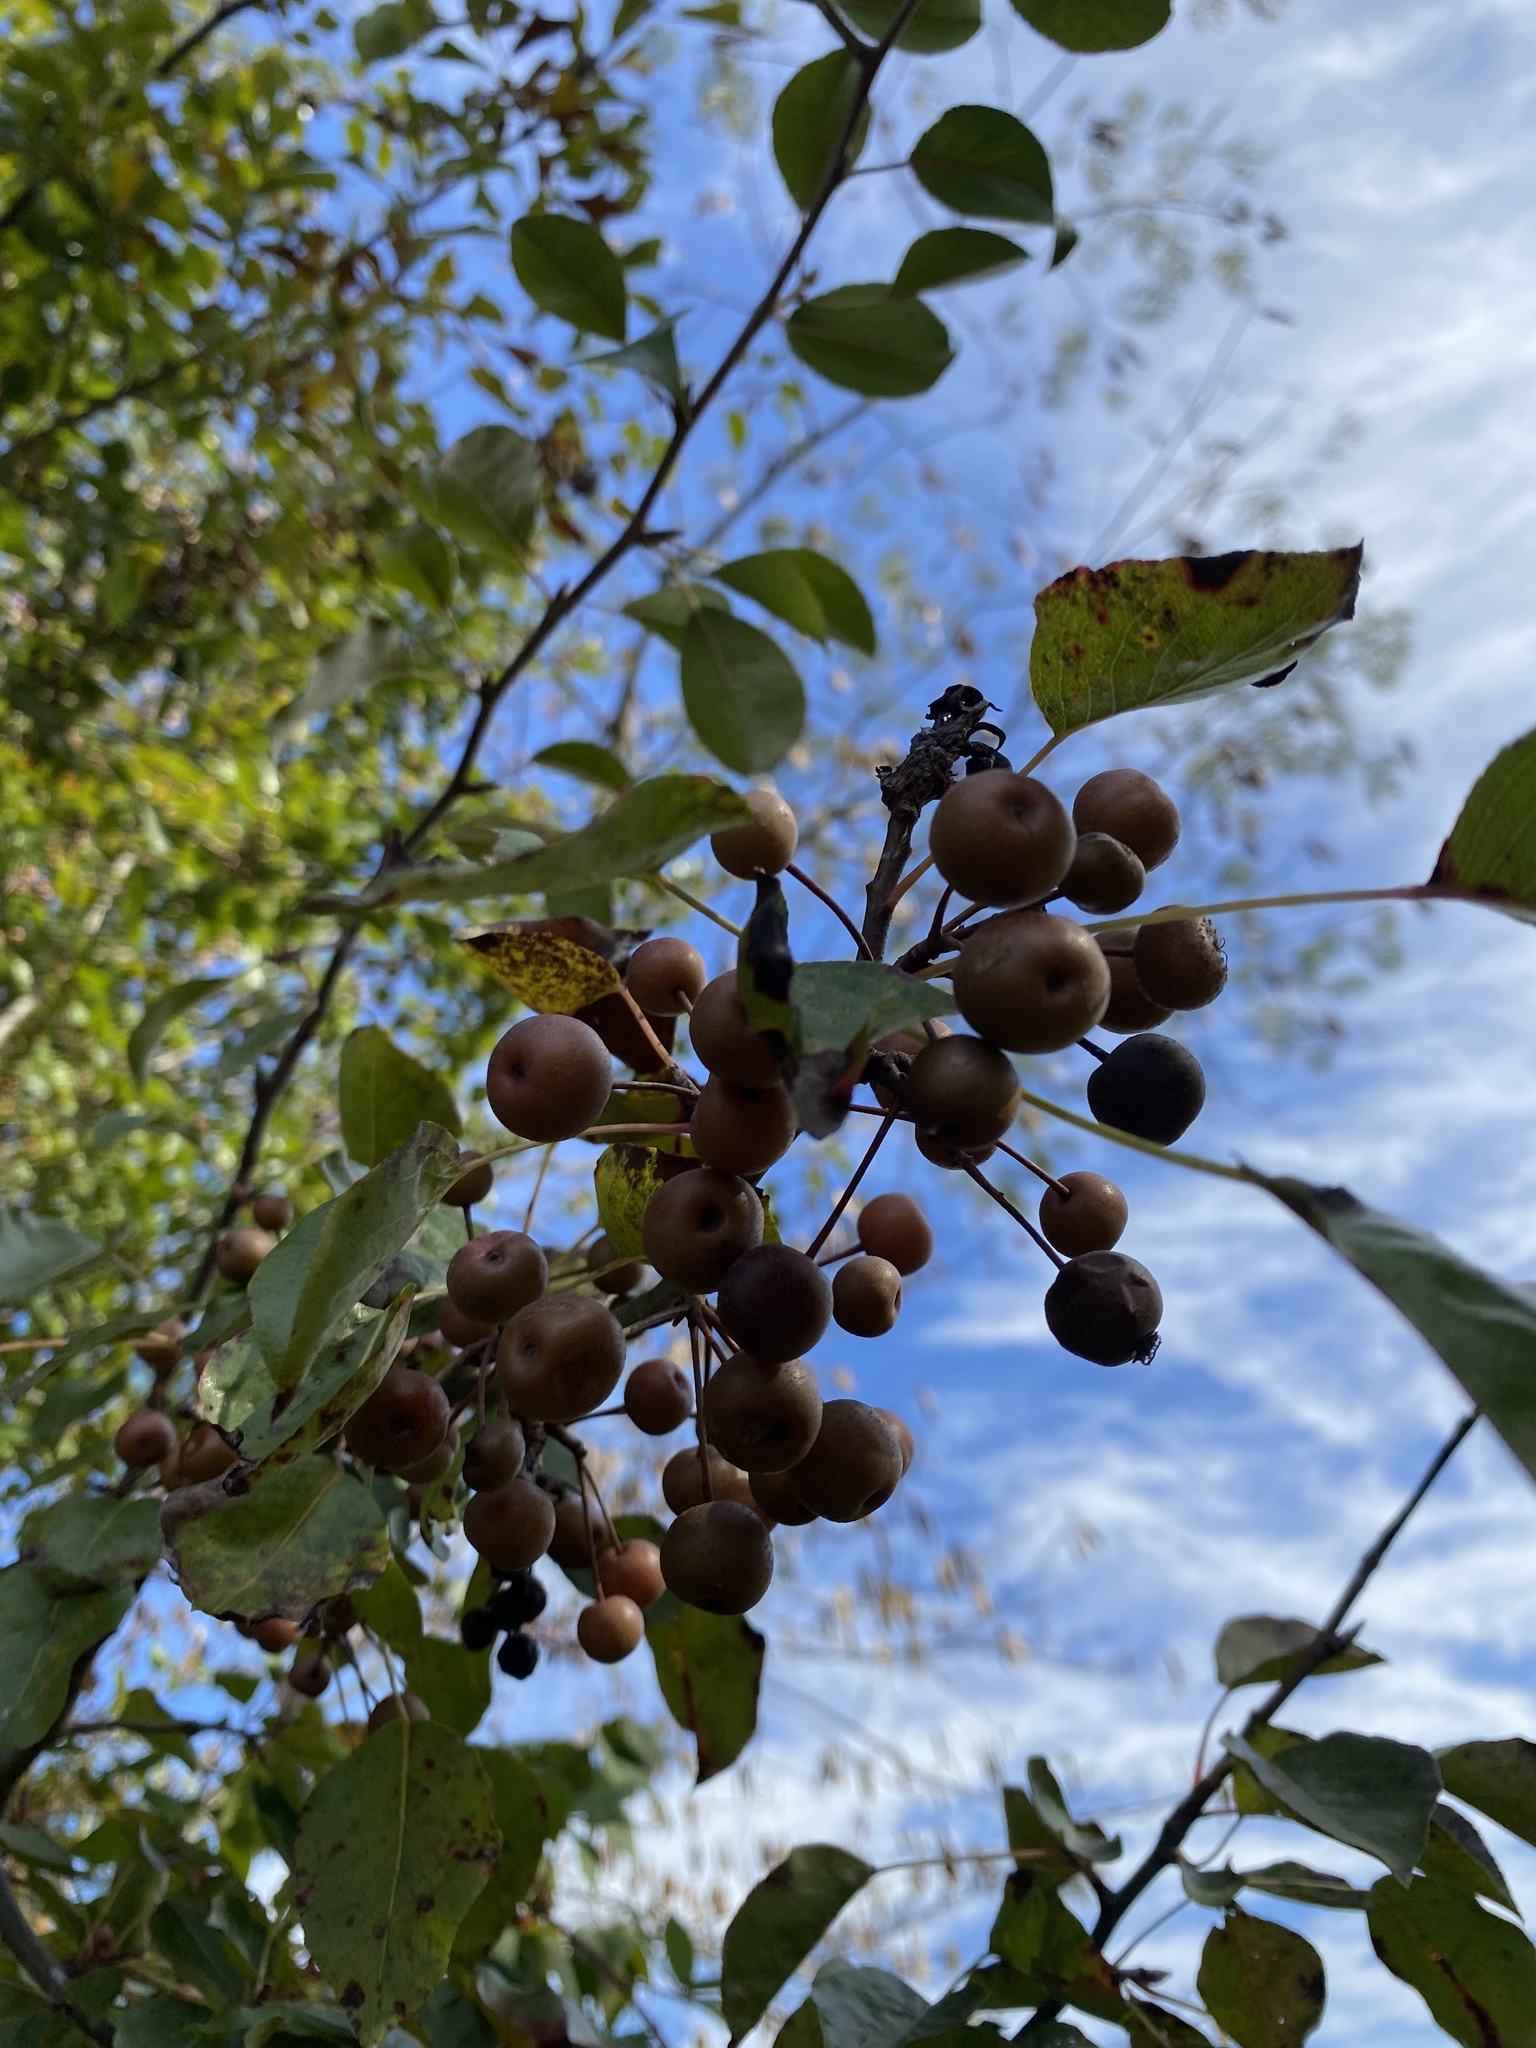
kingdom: Plantae
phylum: Tracheophyta
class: Magnoliopsida
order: Rosales
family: Rosaceae
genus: Pyrus
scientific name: Pyrus calleryana
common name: Callery pear
